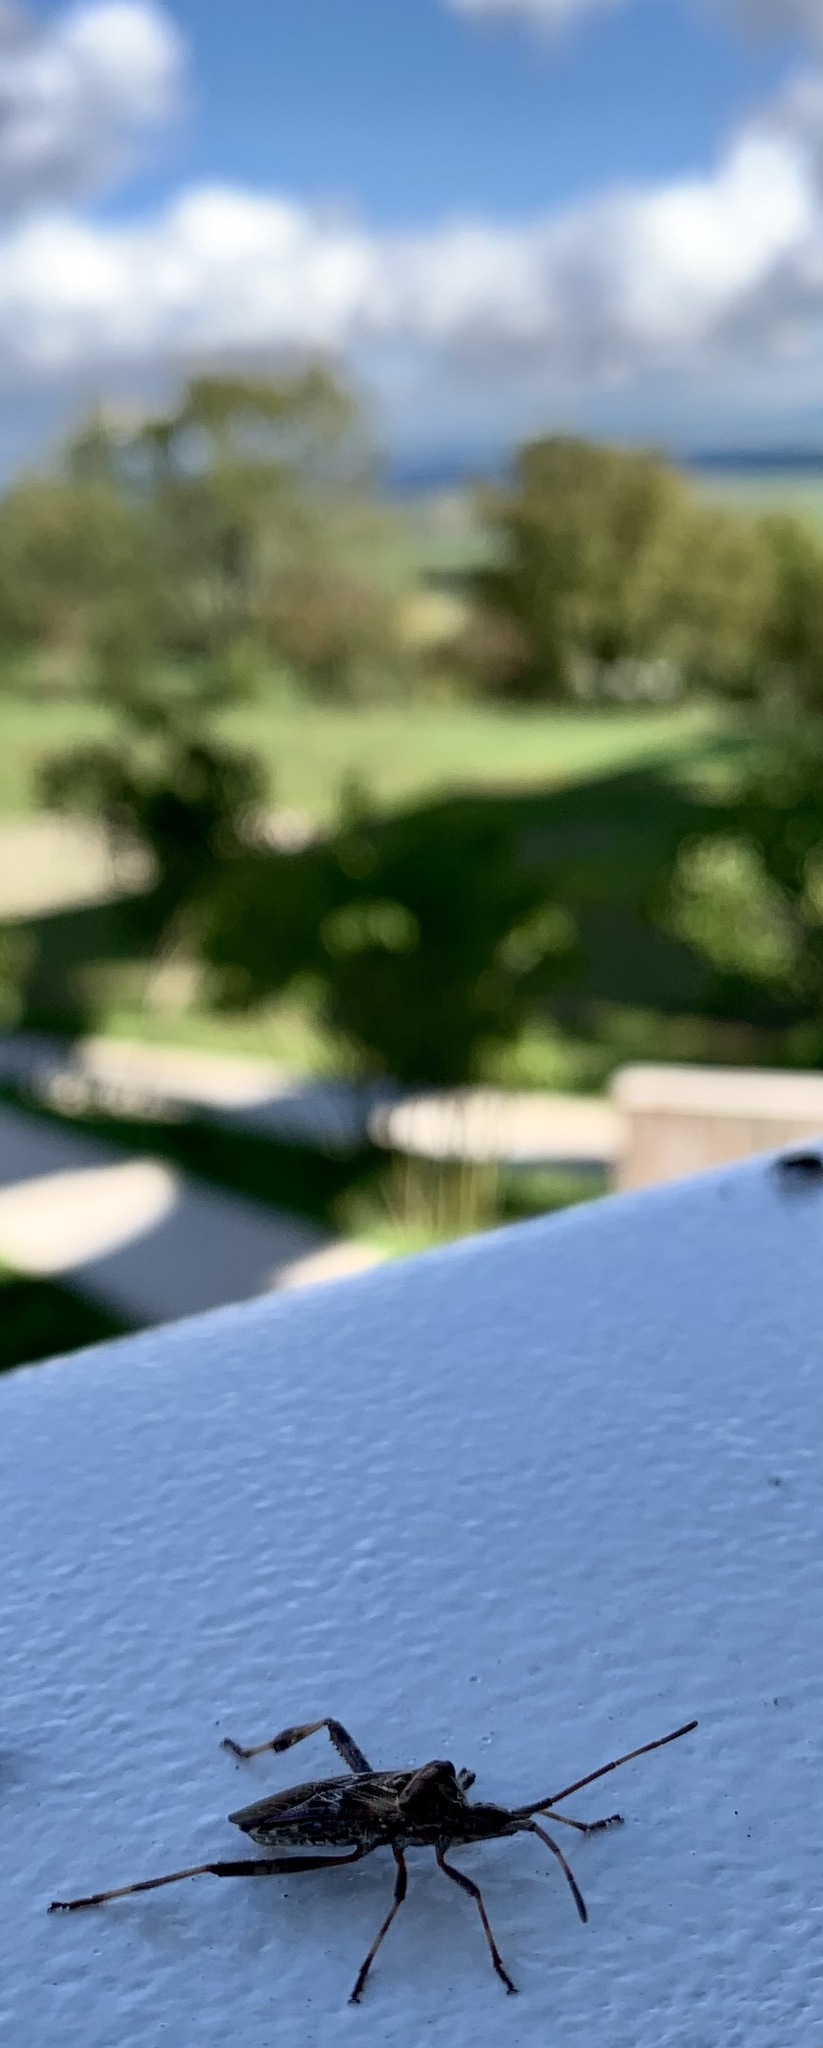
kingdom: Animalia
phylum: Arthropoda
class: Insecta
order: Hemiptera
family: Coreidae
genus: Leptoglossus
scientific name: Leptoglossus occidentalis
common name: Western conifer-seed bug
